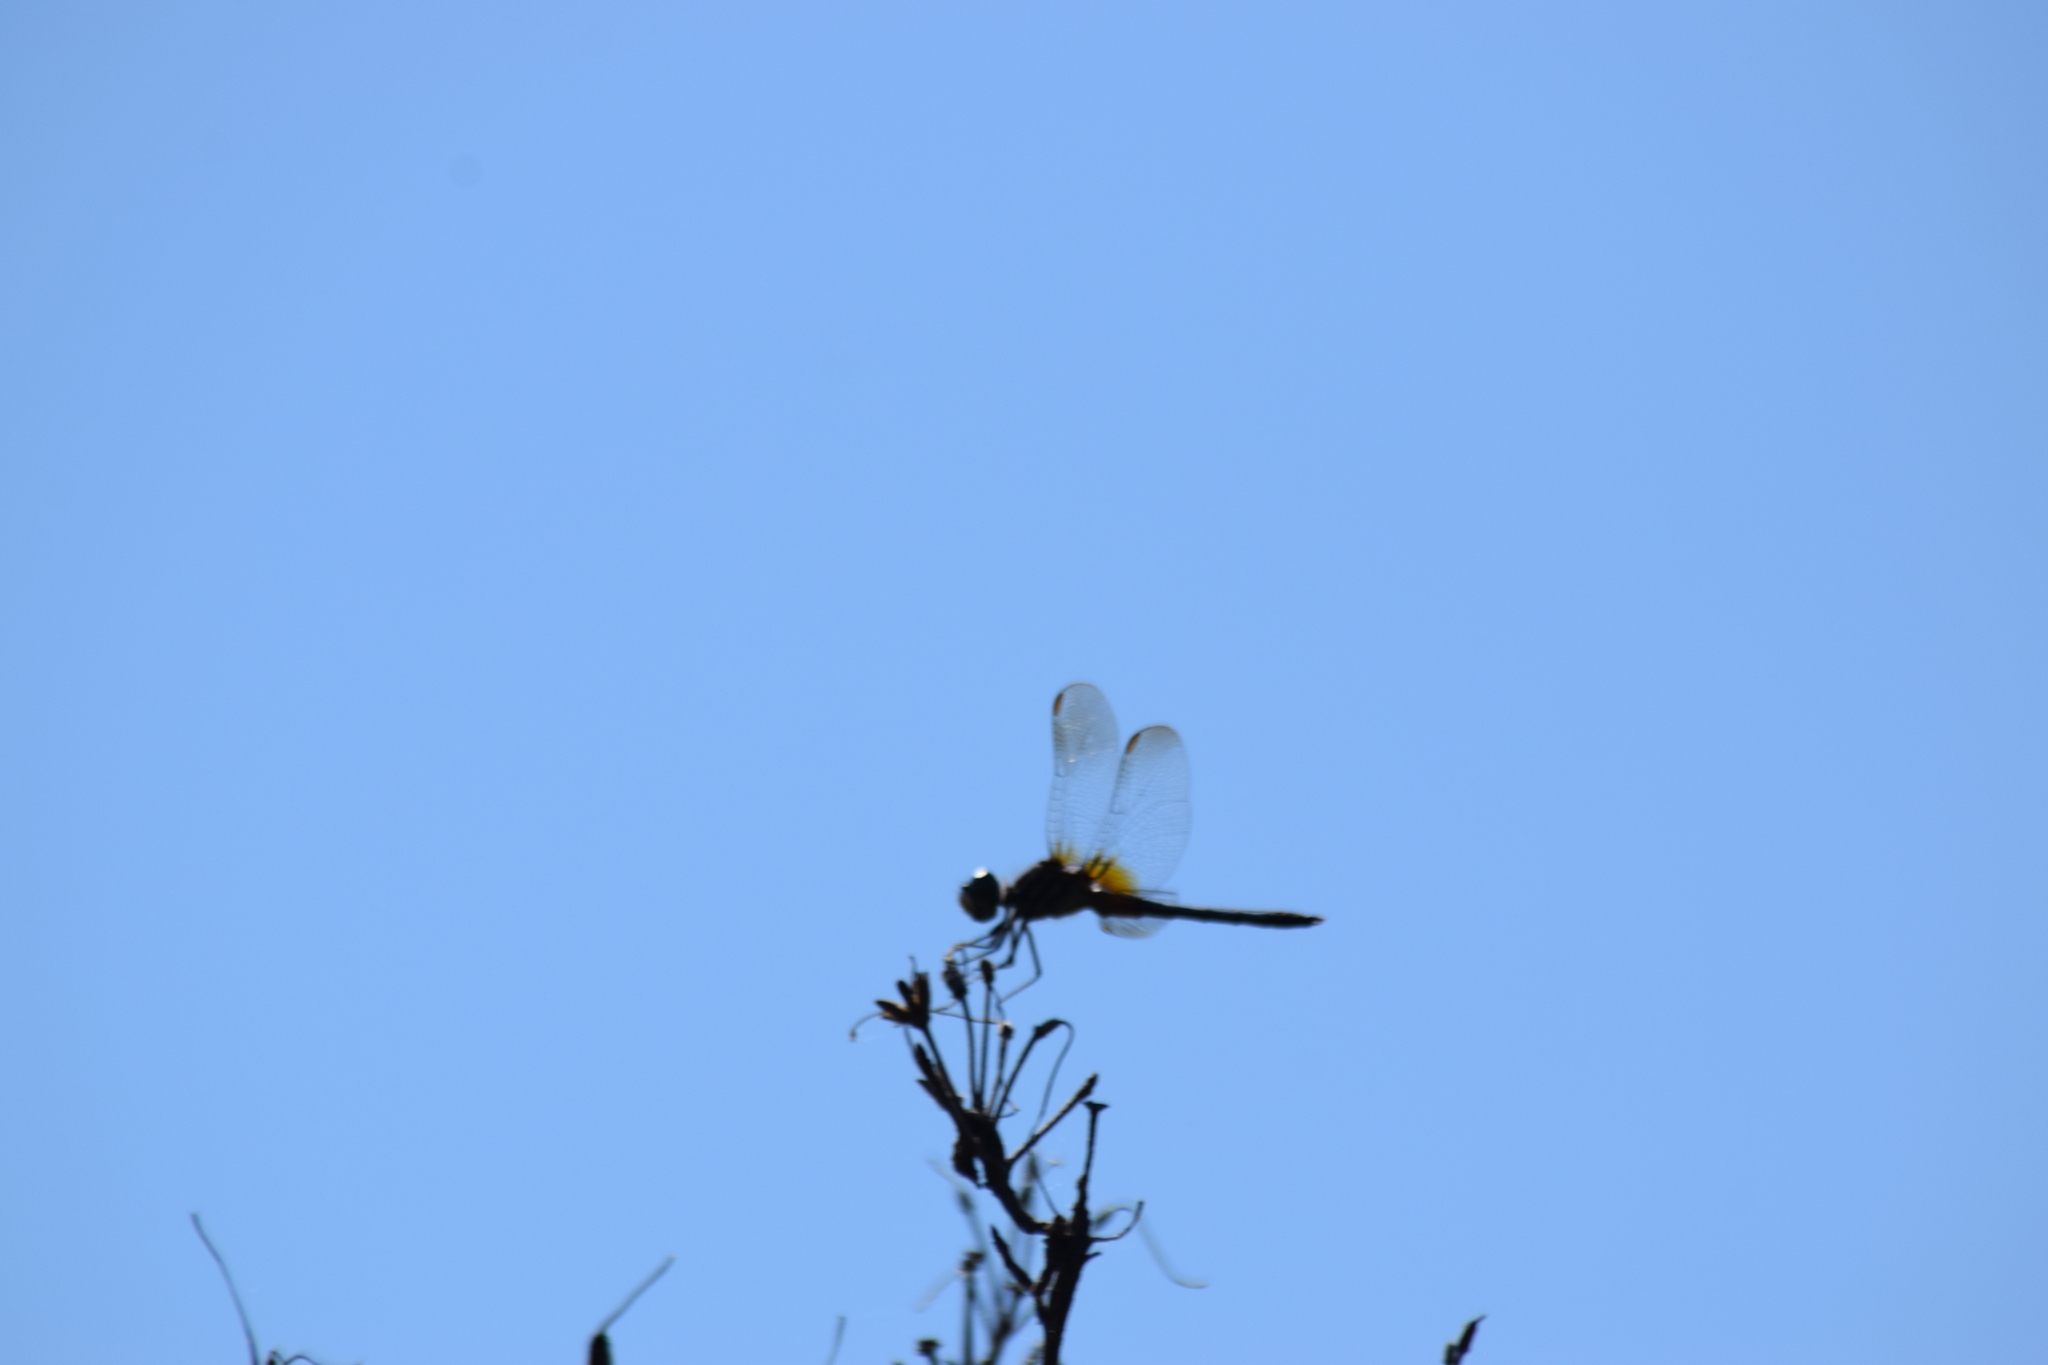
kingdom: Animalia
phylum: Arthropoda
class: Insecta
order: Odonata
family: Libellulidae
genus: Pachydiplax
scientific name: Pachydiplax longipennis
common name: Blue dasher
